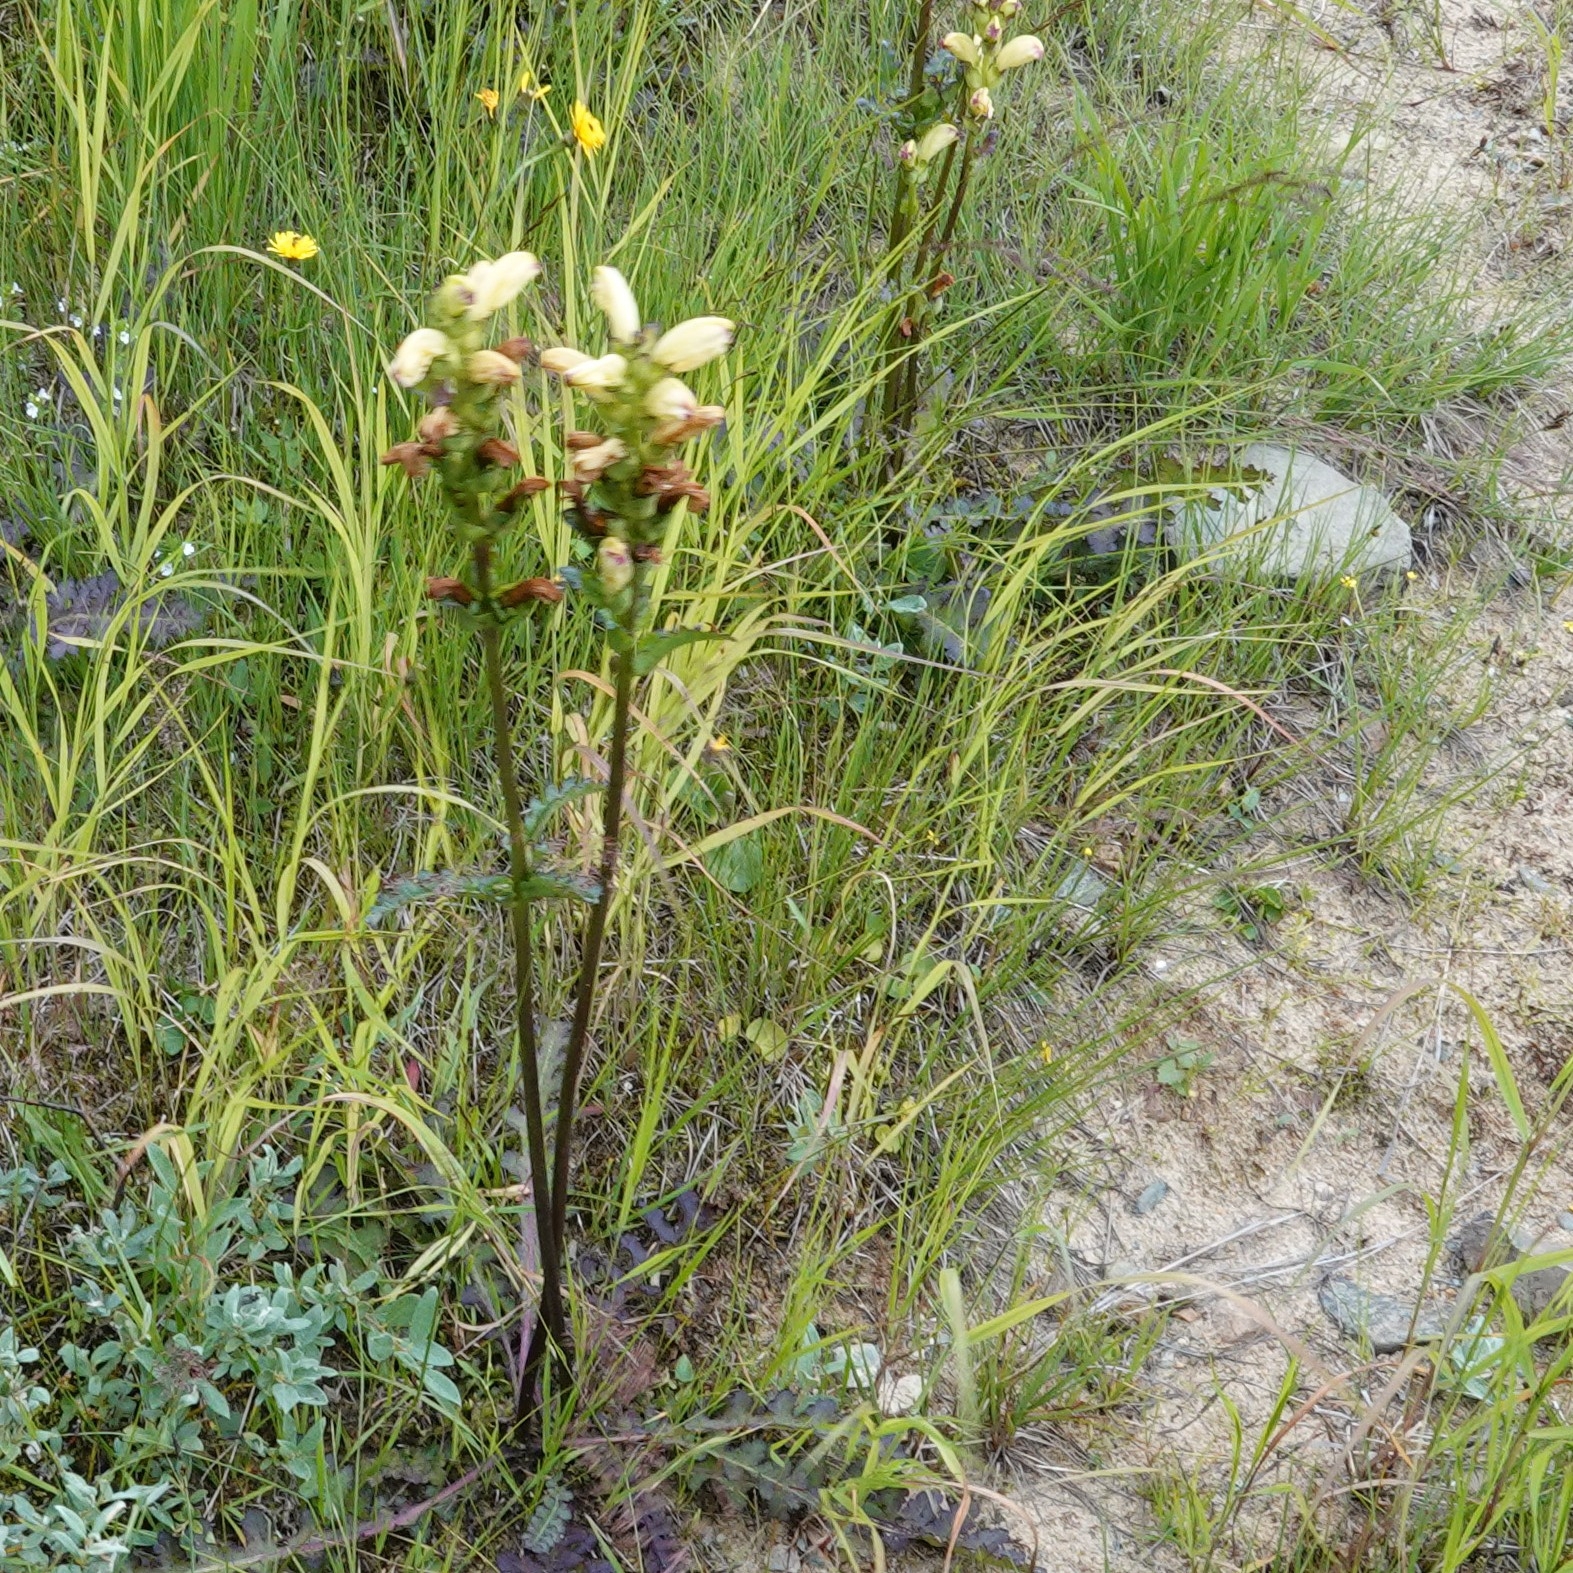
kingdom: Plantae
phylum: Tracheophyta
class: Magnoliopsida
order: Lamiales
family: Orobanchaceae
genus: Pedicularis
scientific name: Pedicularis sceptrum-carolinum
